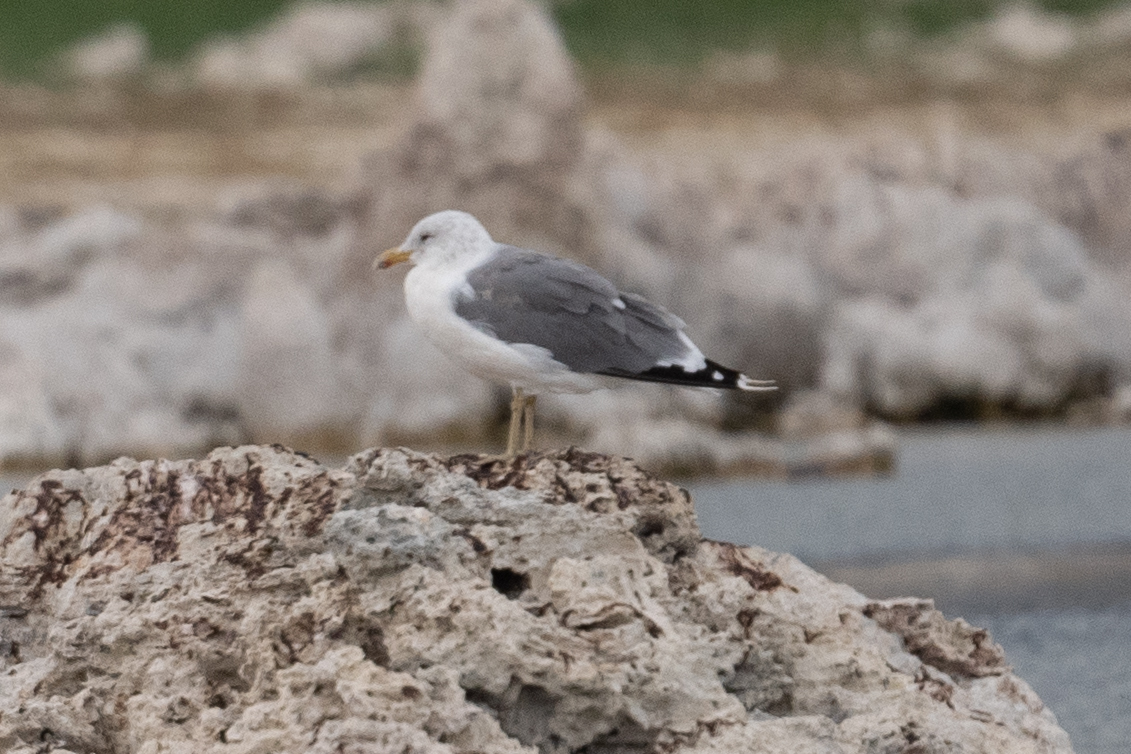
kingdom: Animalia
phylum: Chordata
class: Aves
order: Charadriiformes
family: Laridae
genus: Larus
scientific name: Larus californicus
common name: California gull
